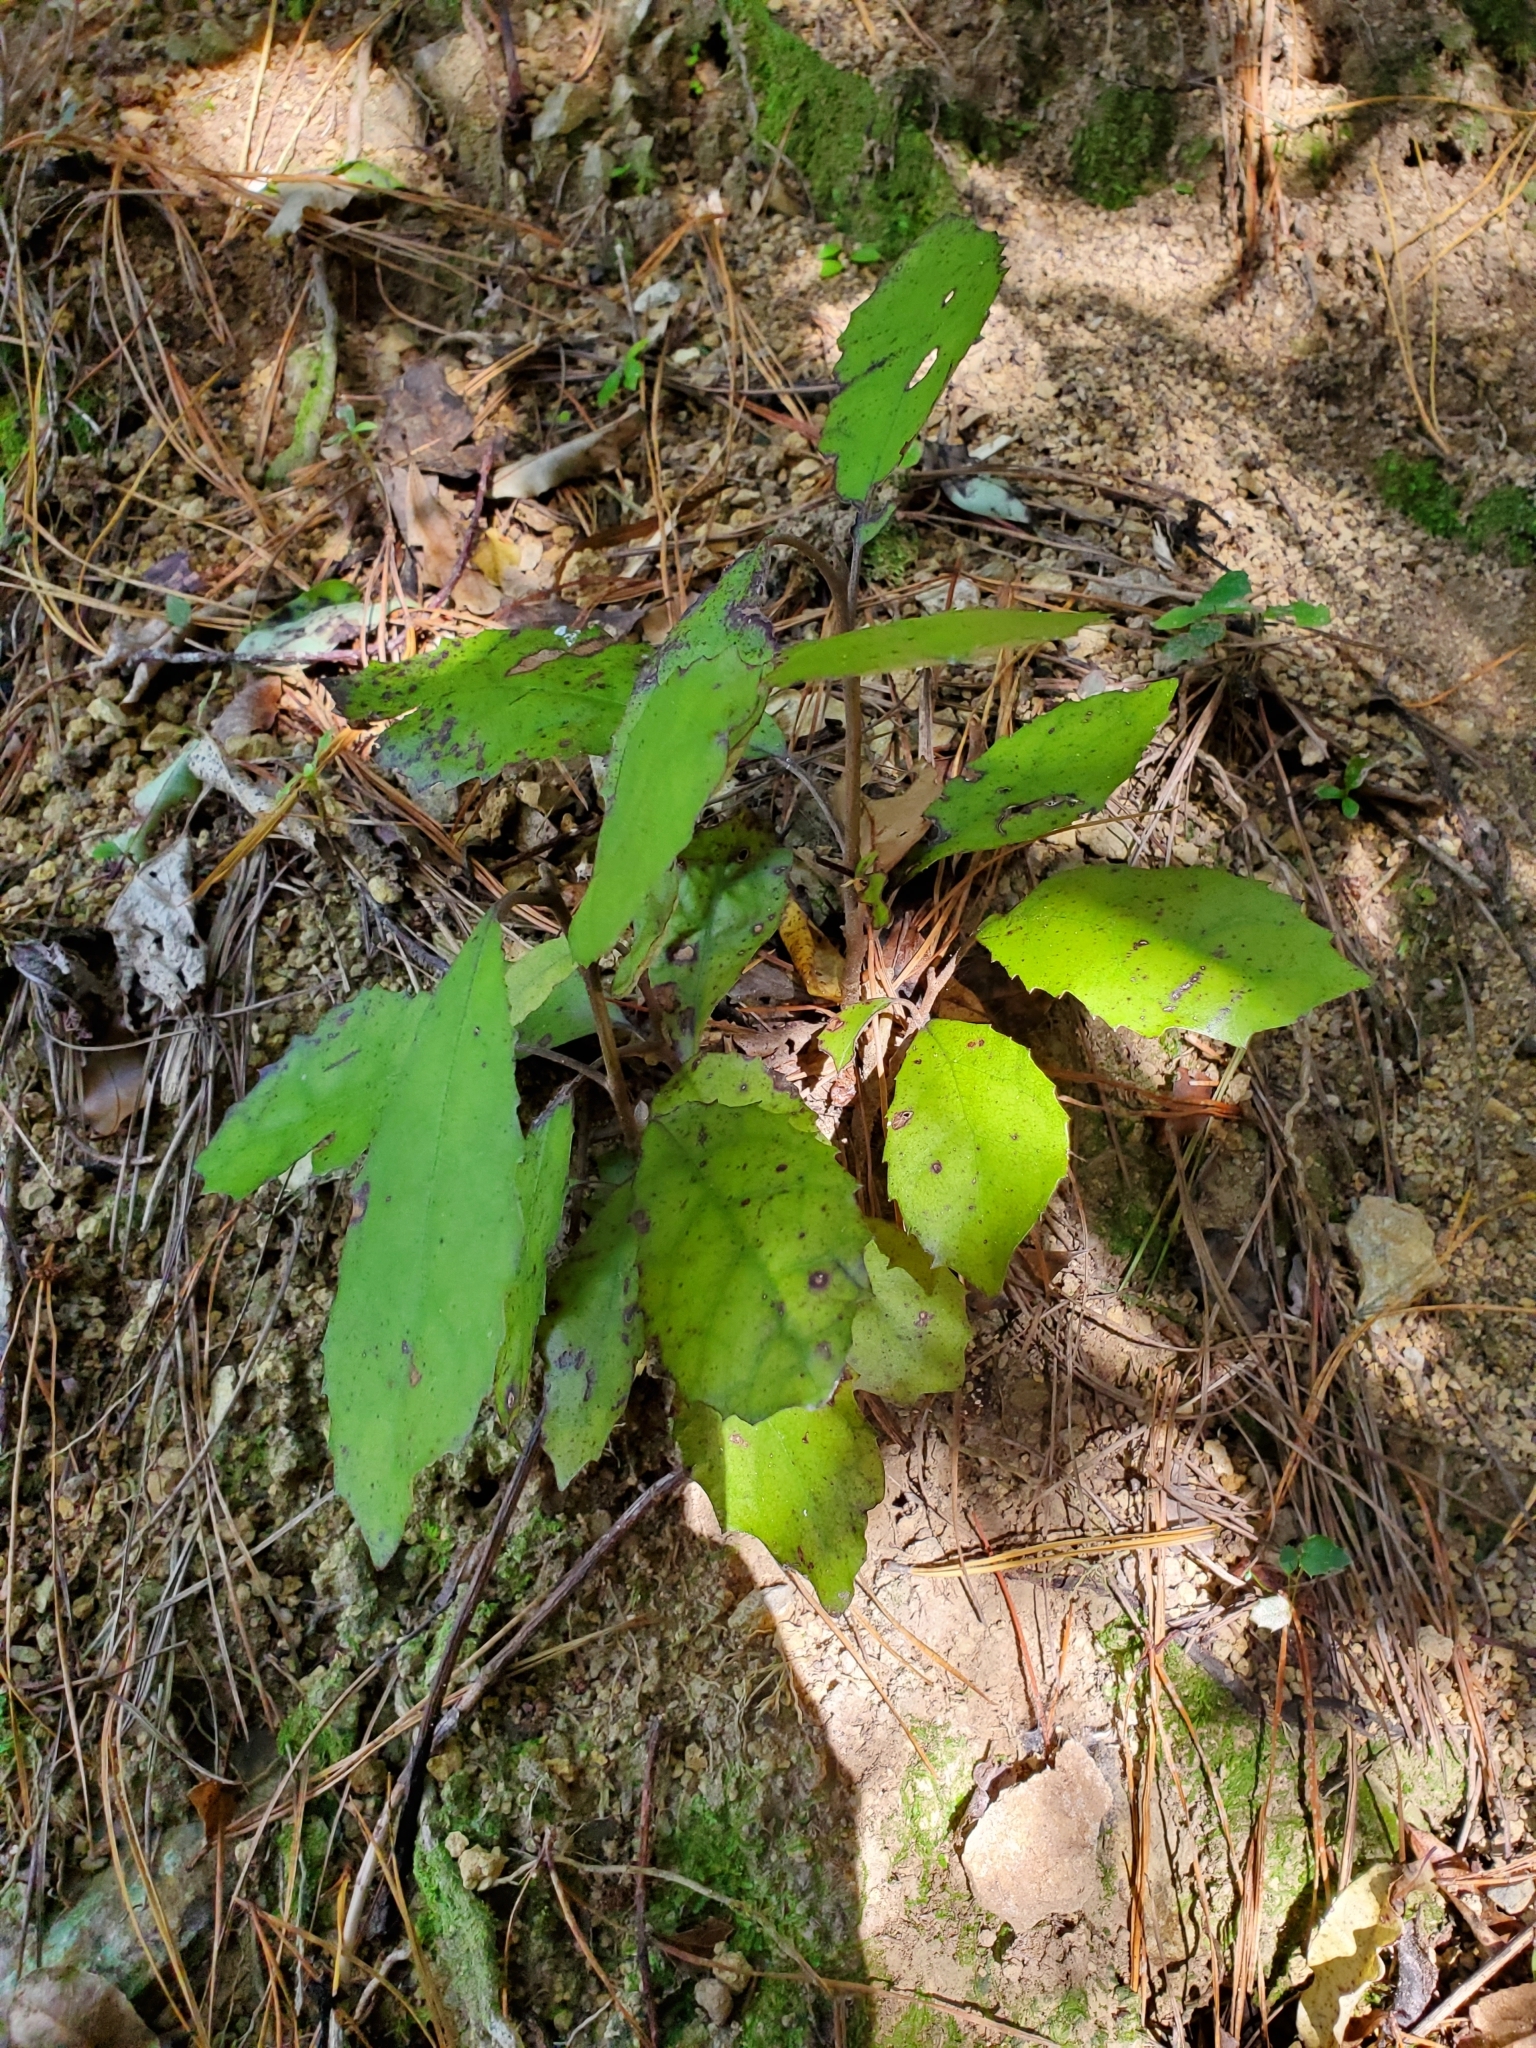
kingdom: Plantae
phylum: Tracheophyta
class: Magnoliopsida
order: Asterales
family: Asteraceae
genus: Olearia
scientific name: Olearia rani
